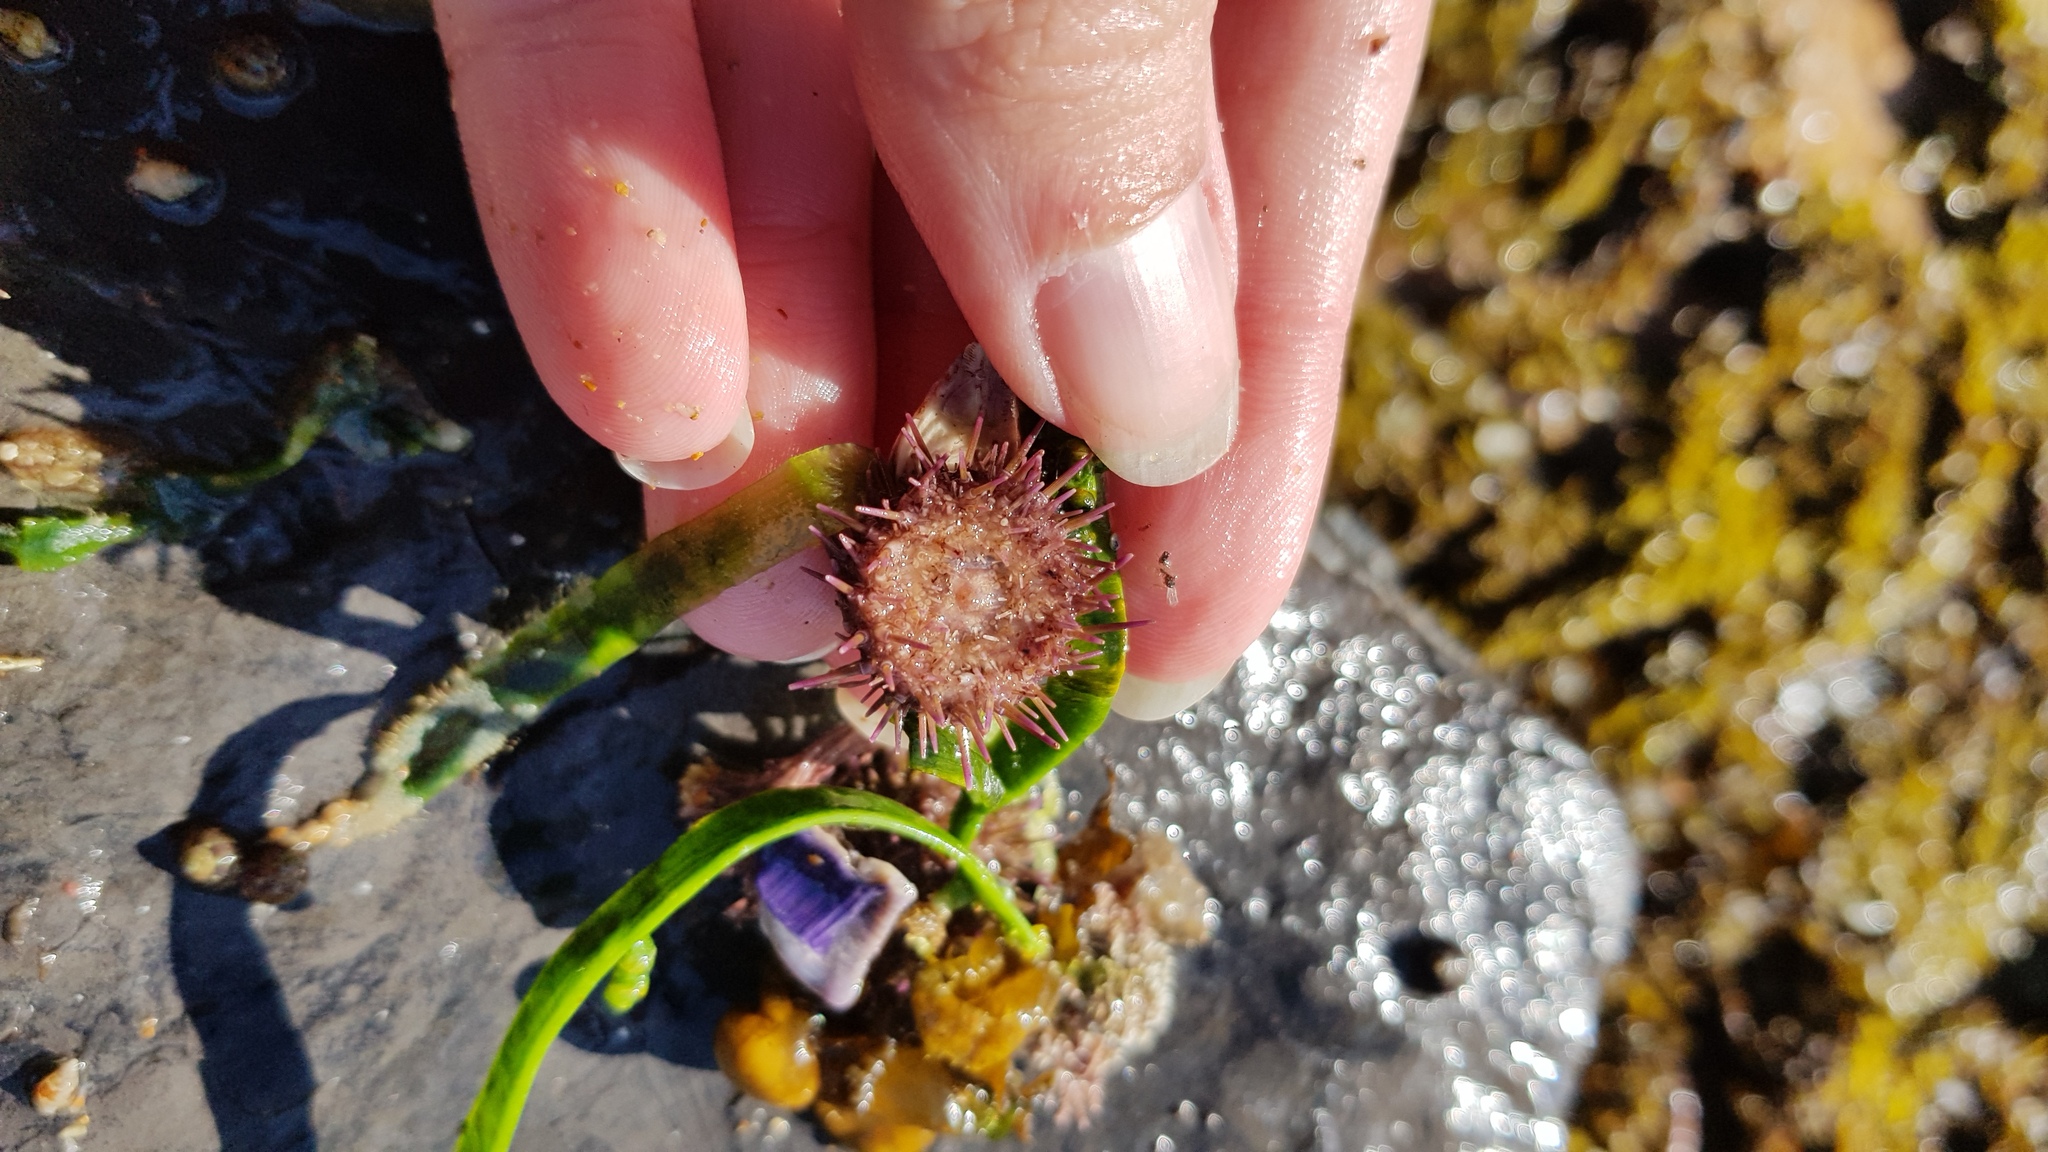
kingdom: Animalia
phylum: Echinodermata
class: Echinoidea
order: Camarodonta
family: Echinometridae
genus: Heliocidaris
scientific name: Heliocidaris erythrogramma
